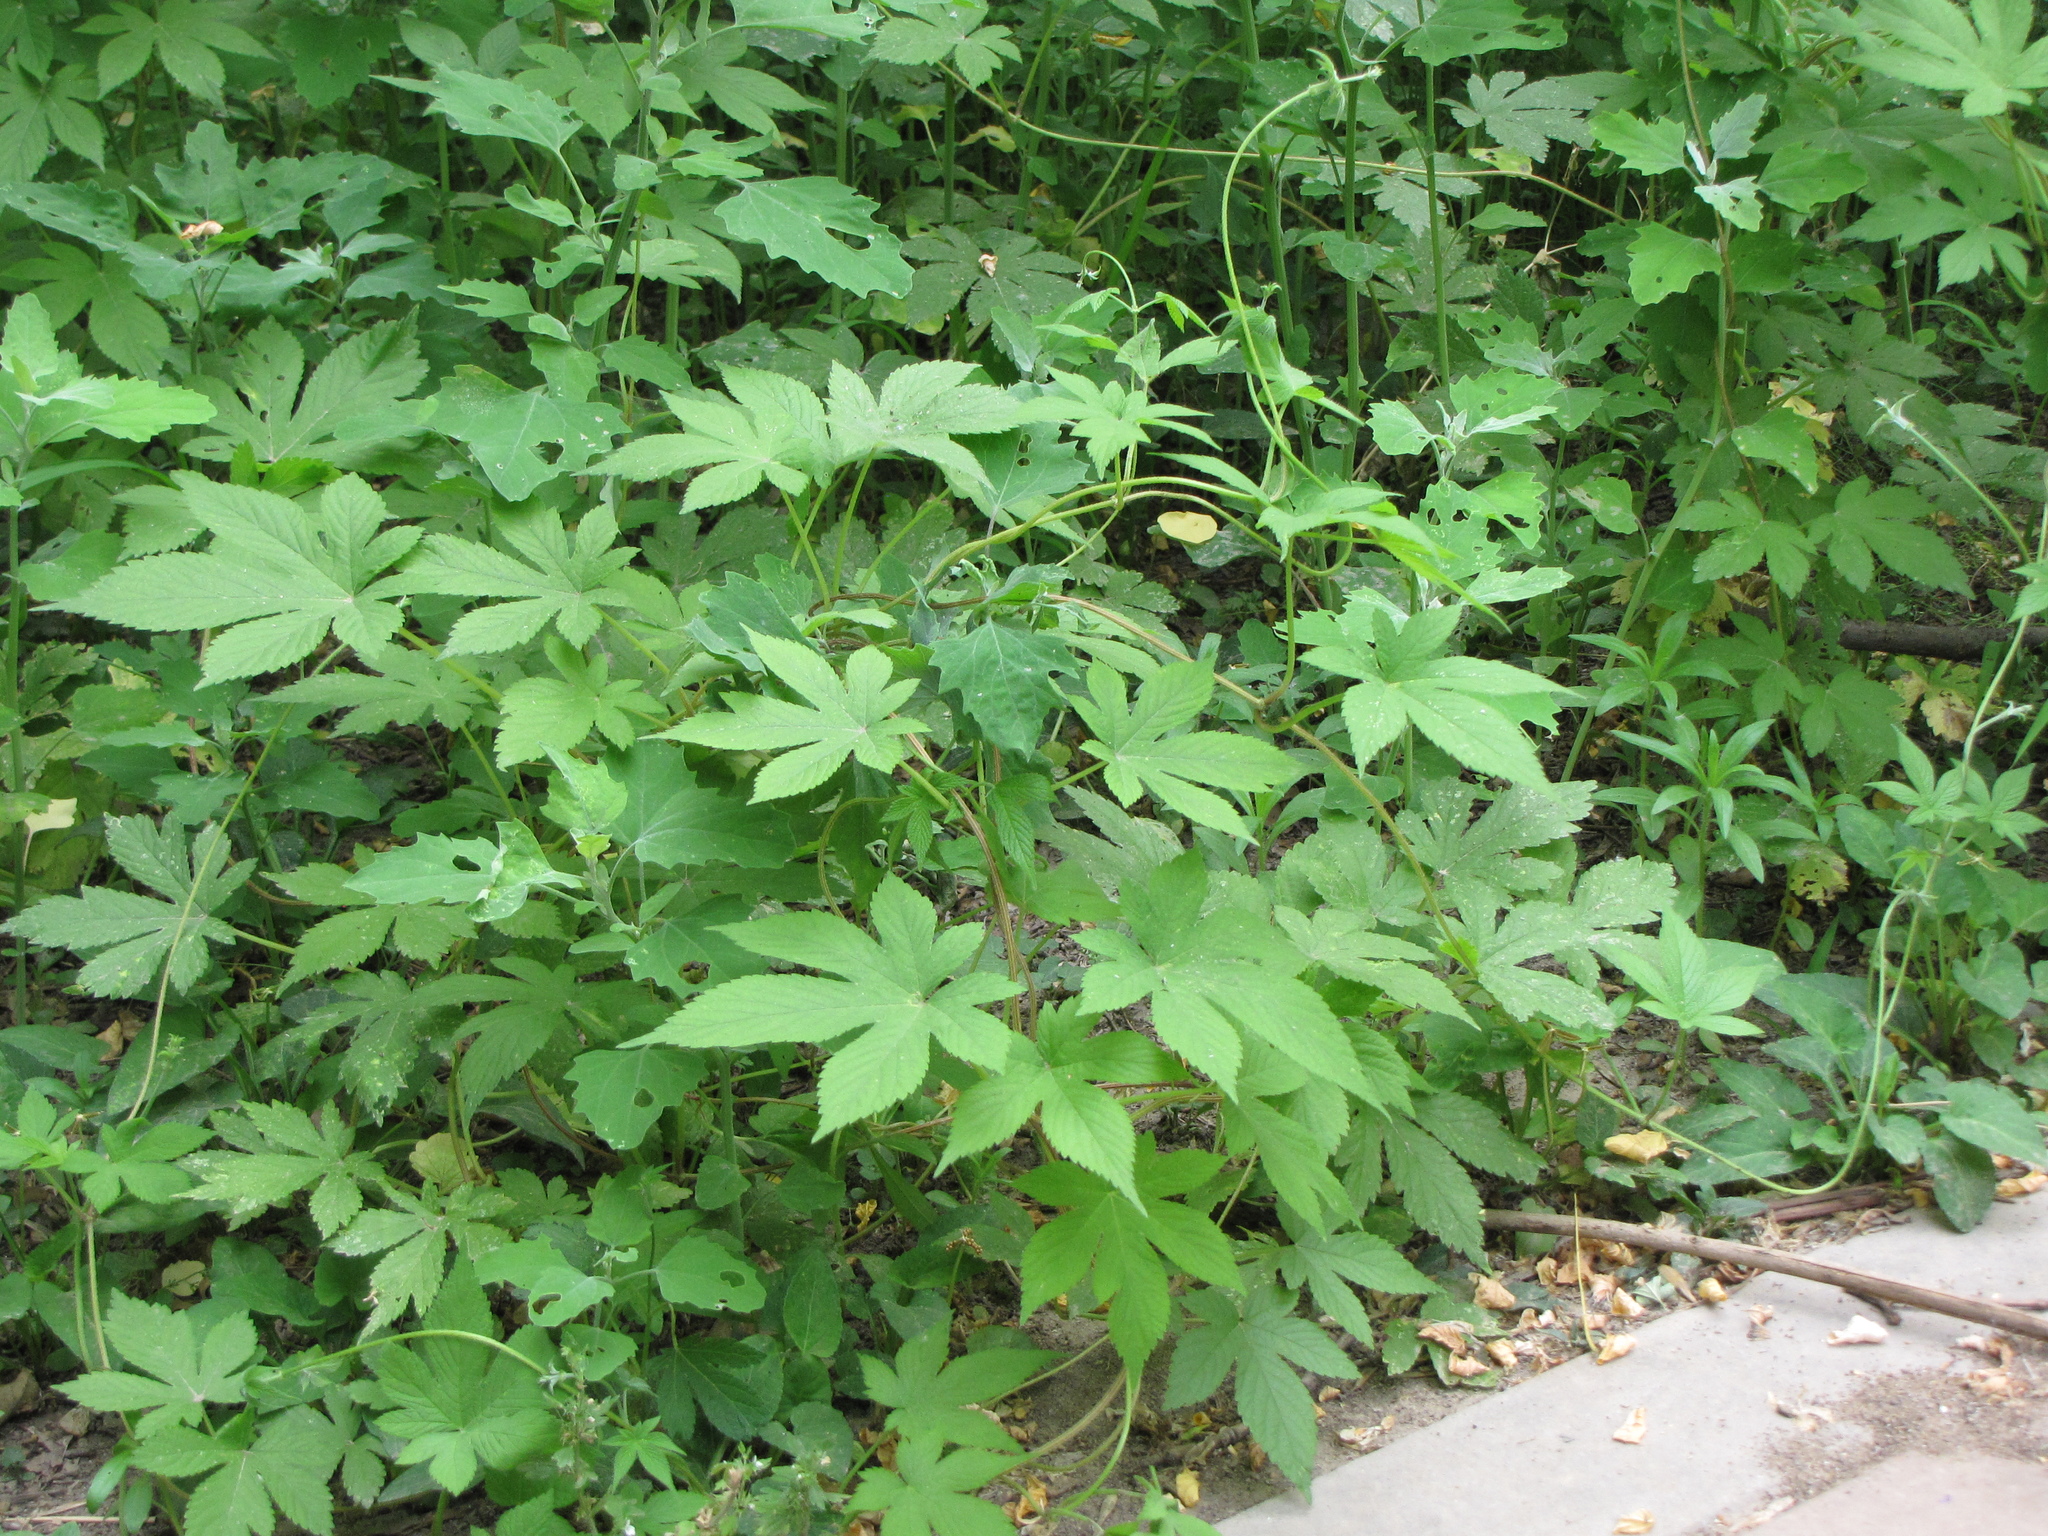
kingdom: Plantae
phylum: Tracheophyta
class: Magnoliopsida
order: Rosales
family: Cannabaceae
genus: Humulus
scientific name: Humulus scandens
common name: Japanese hop
